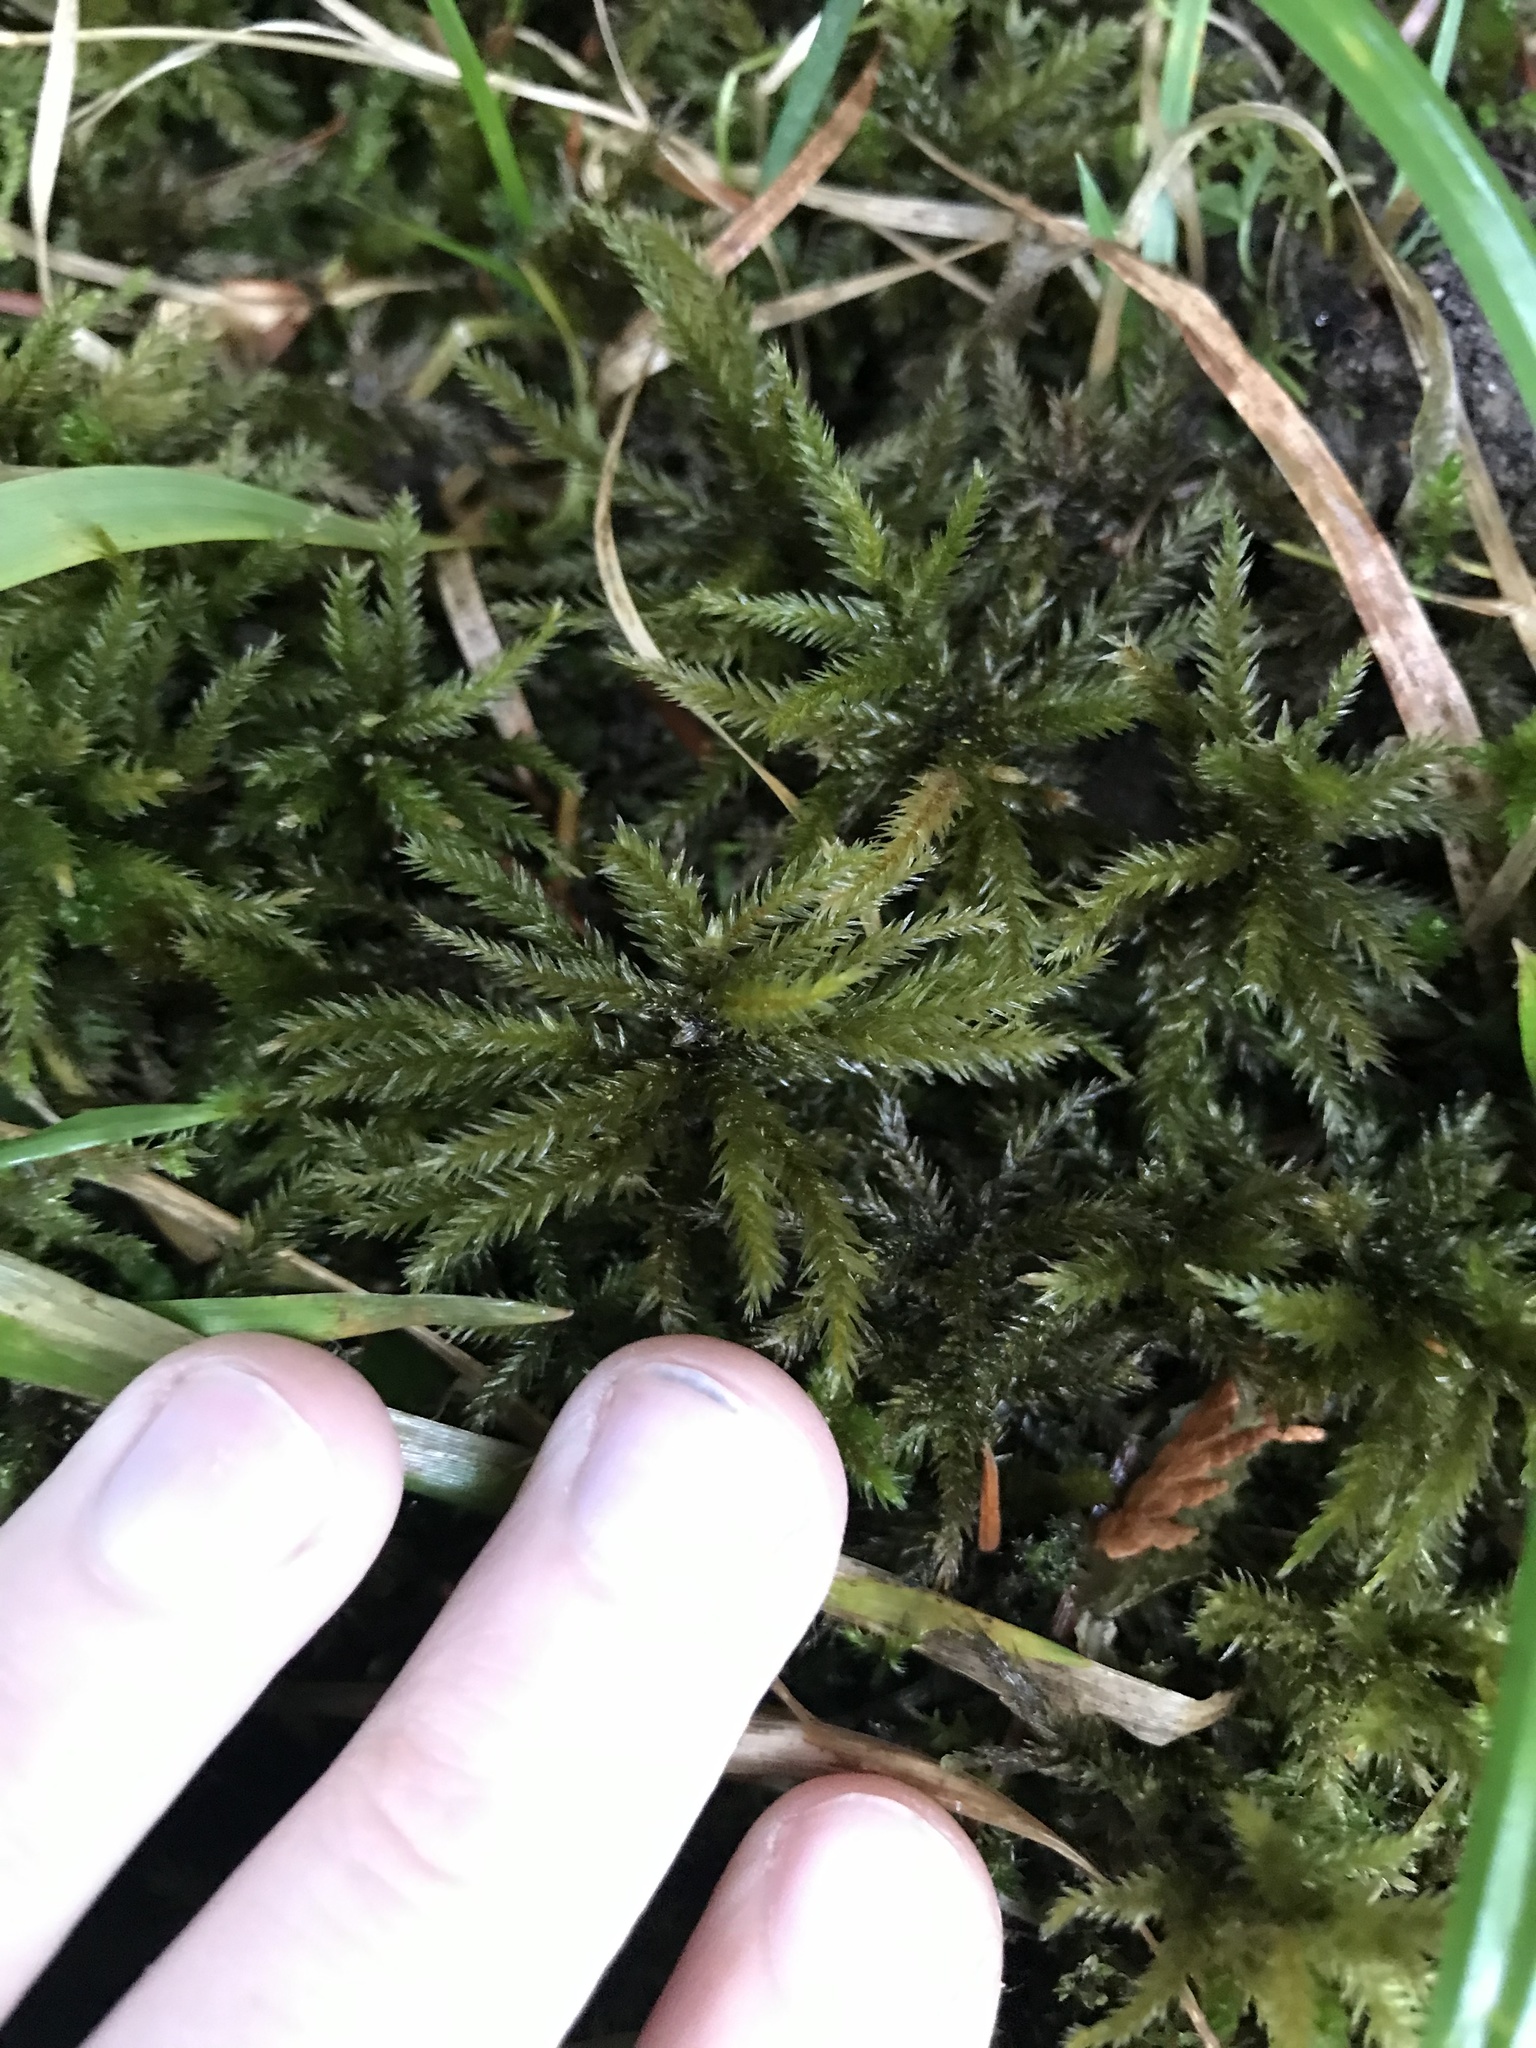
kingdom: Plantae
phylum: Bryophyta
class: Bryopsida
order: Hypnales
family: Climaciaceae
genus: Climacium
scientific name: Climacium dendroides
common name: Northern tree moss
